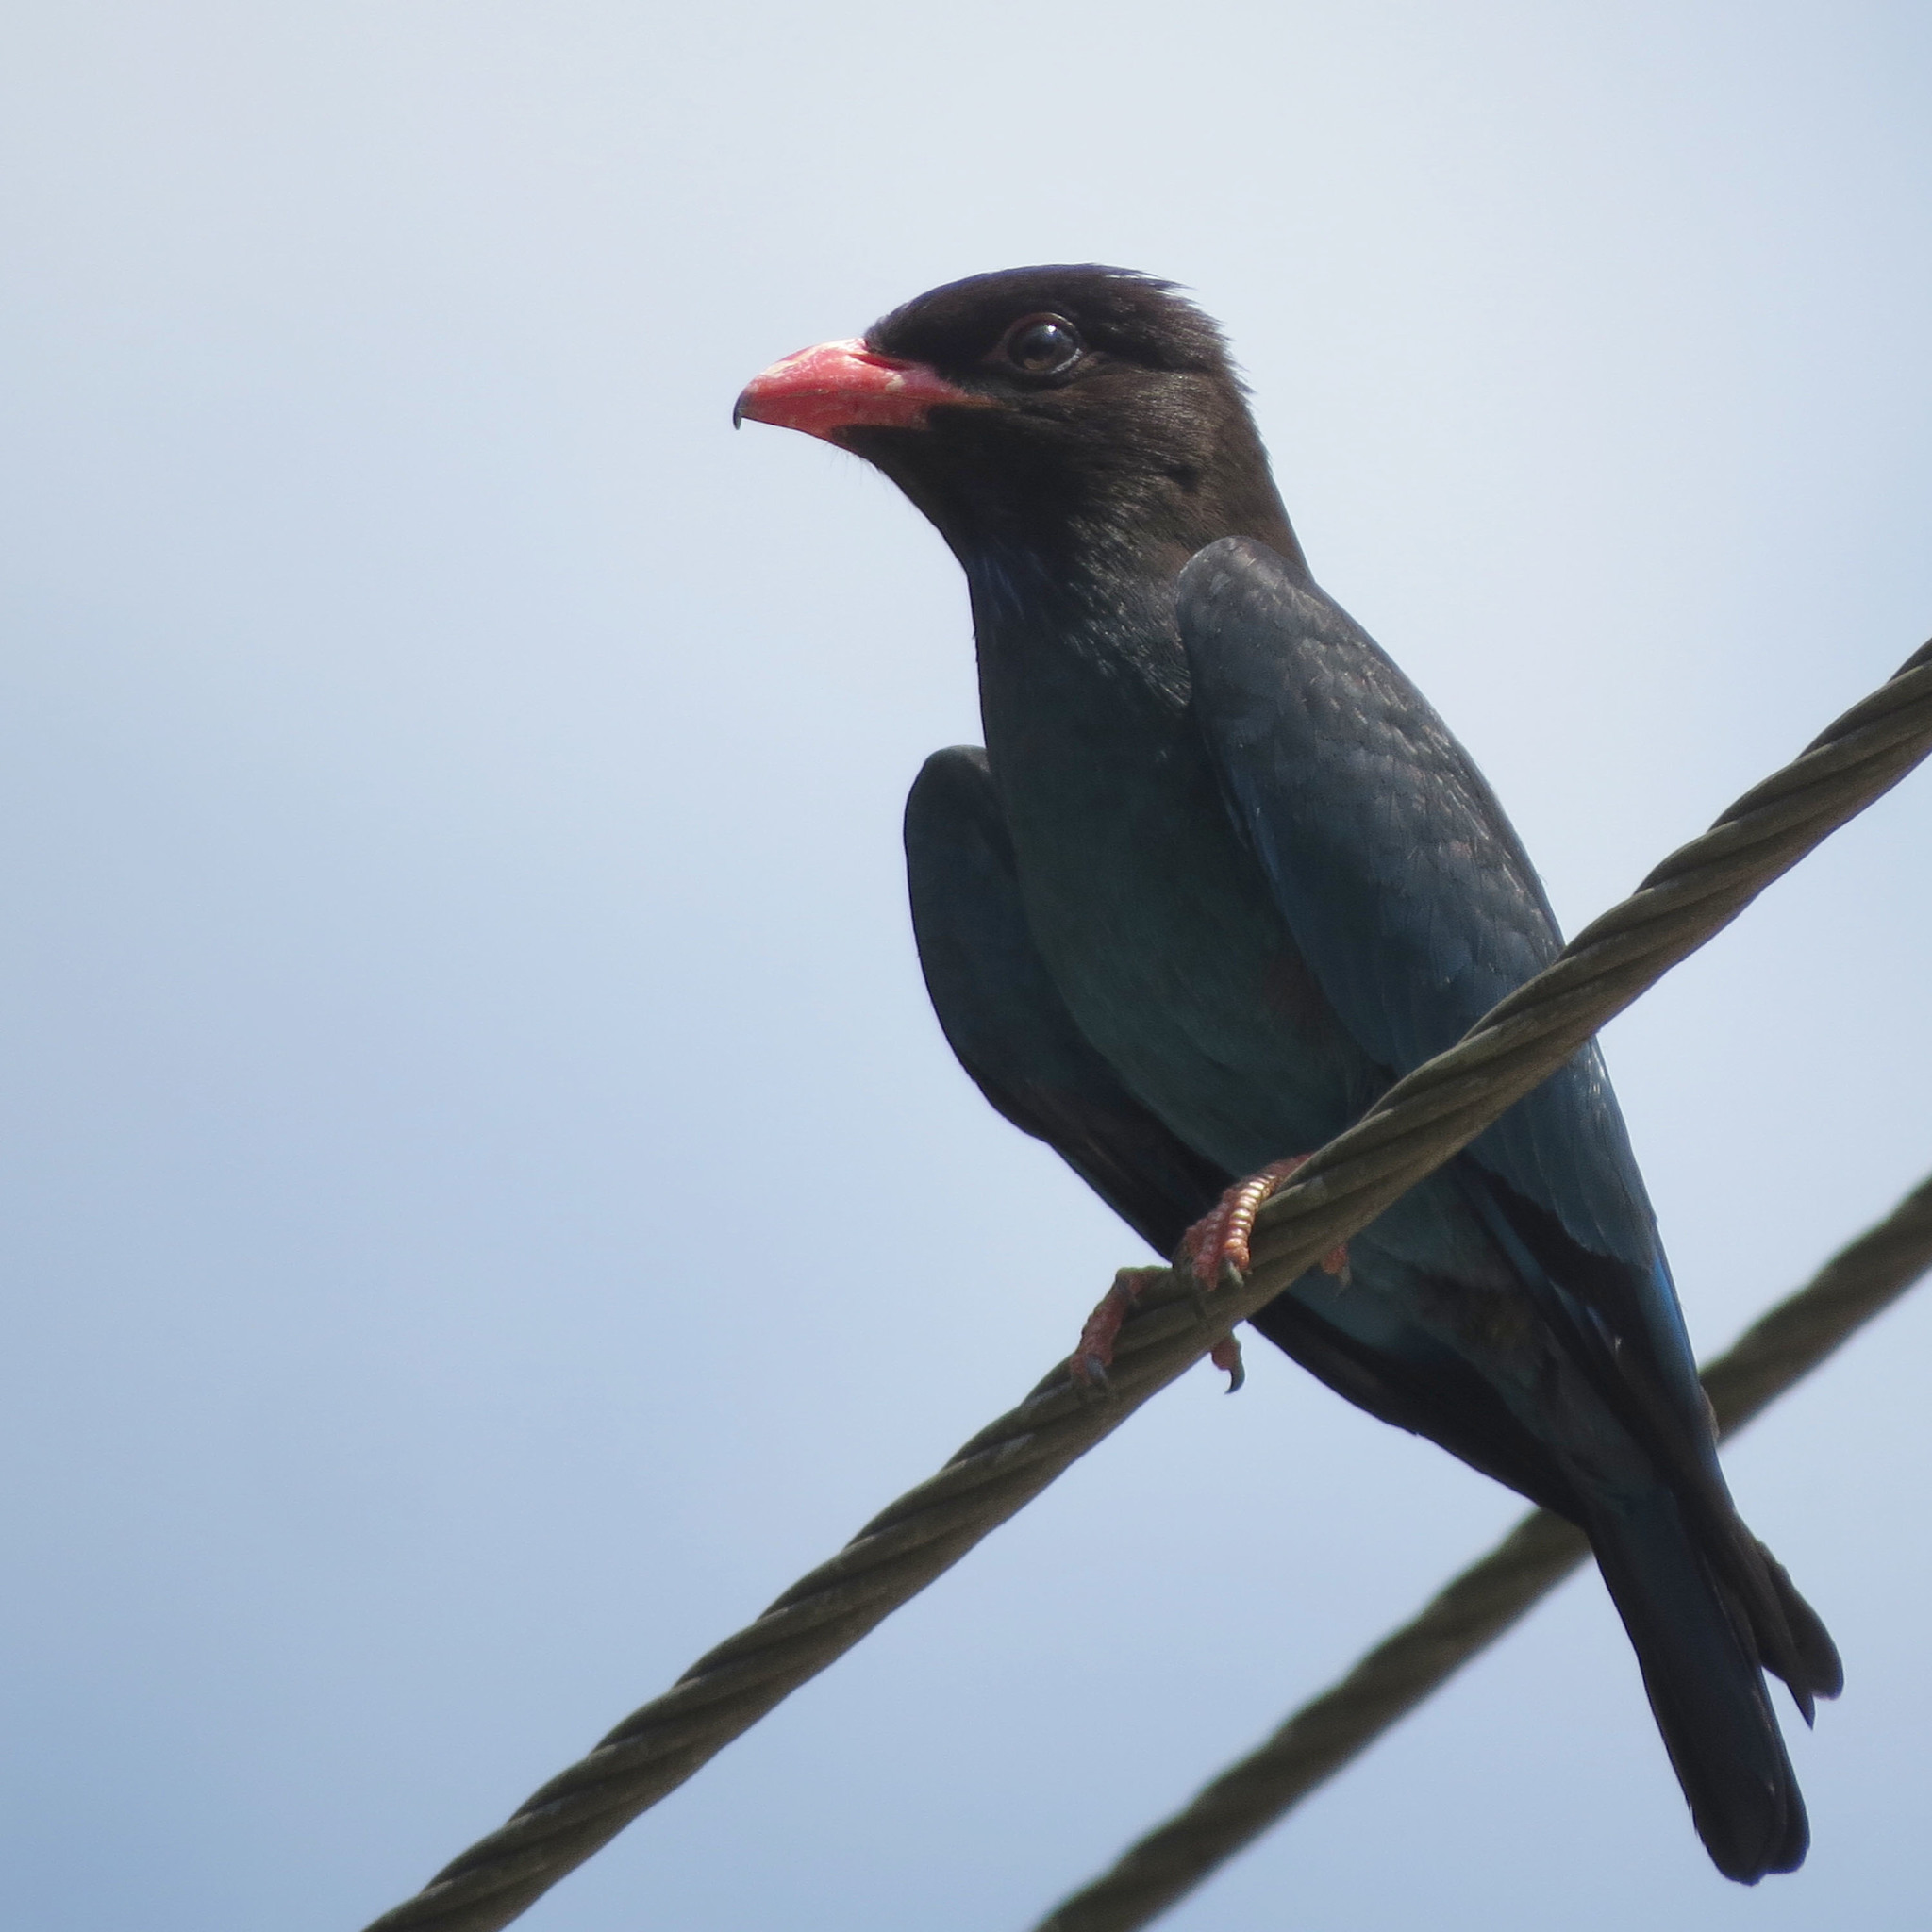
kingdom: Animalia
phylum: Chordata
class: Aves
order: Coraciiformes
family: Coraciidae
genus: Eurystomus
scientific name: Eurystomus orientalis
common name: Oriental dollarbird
